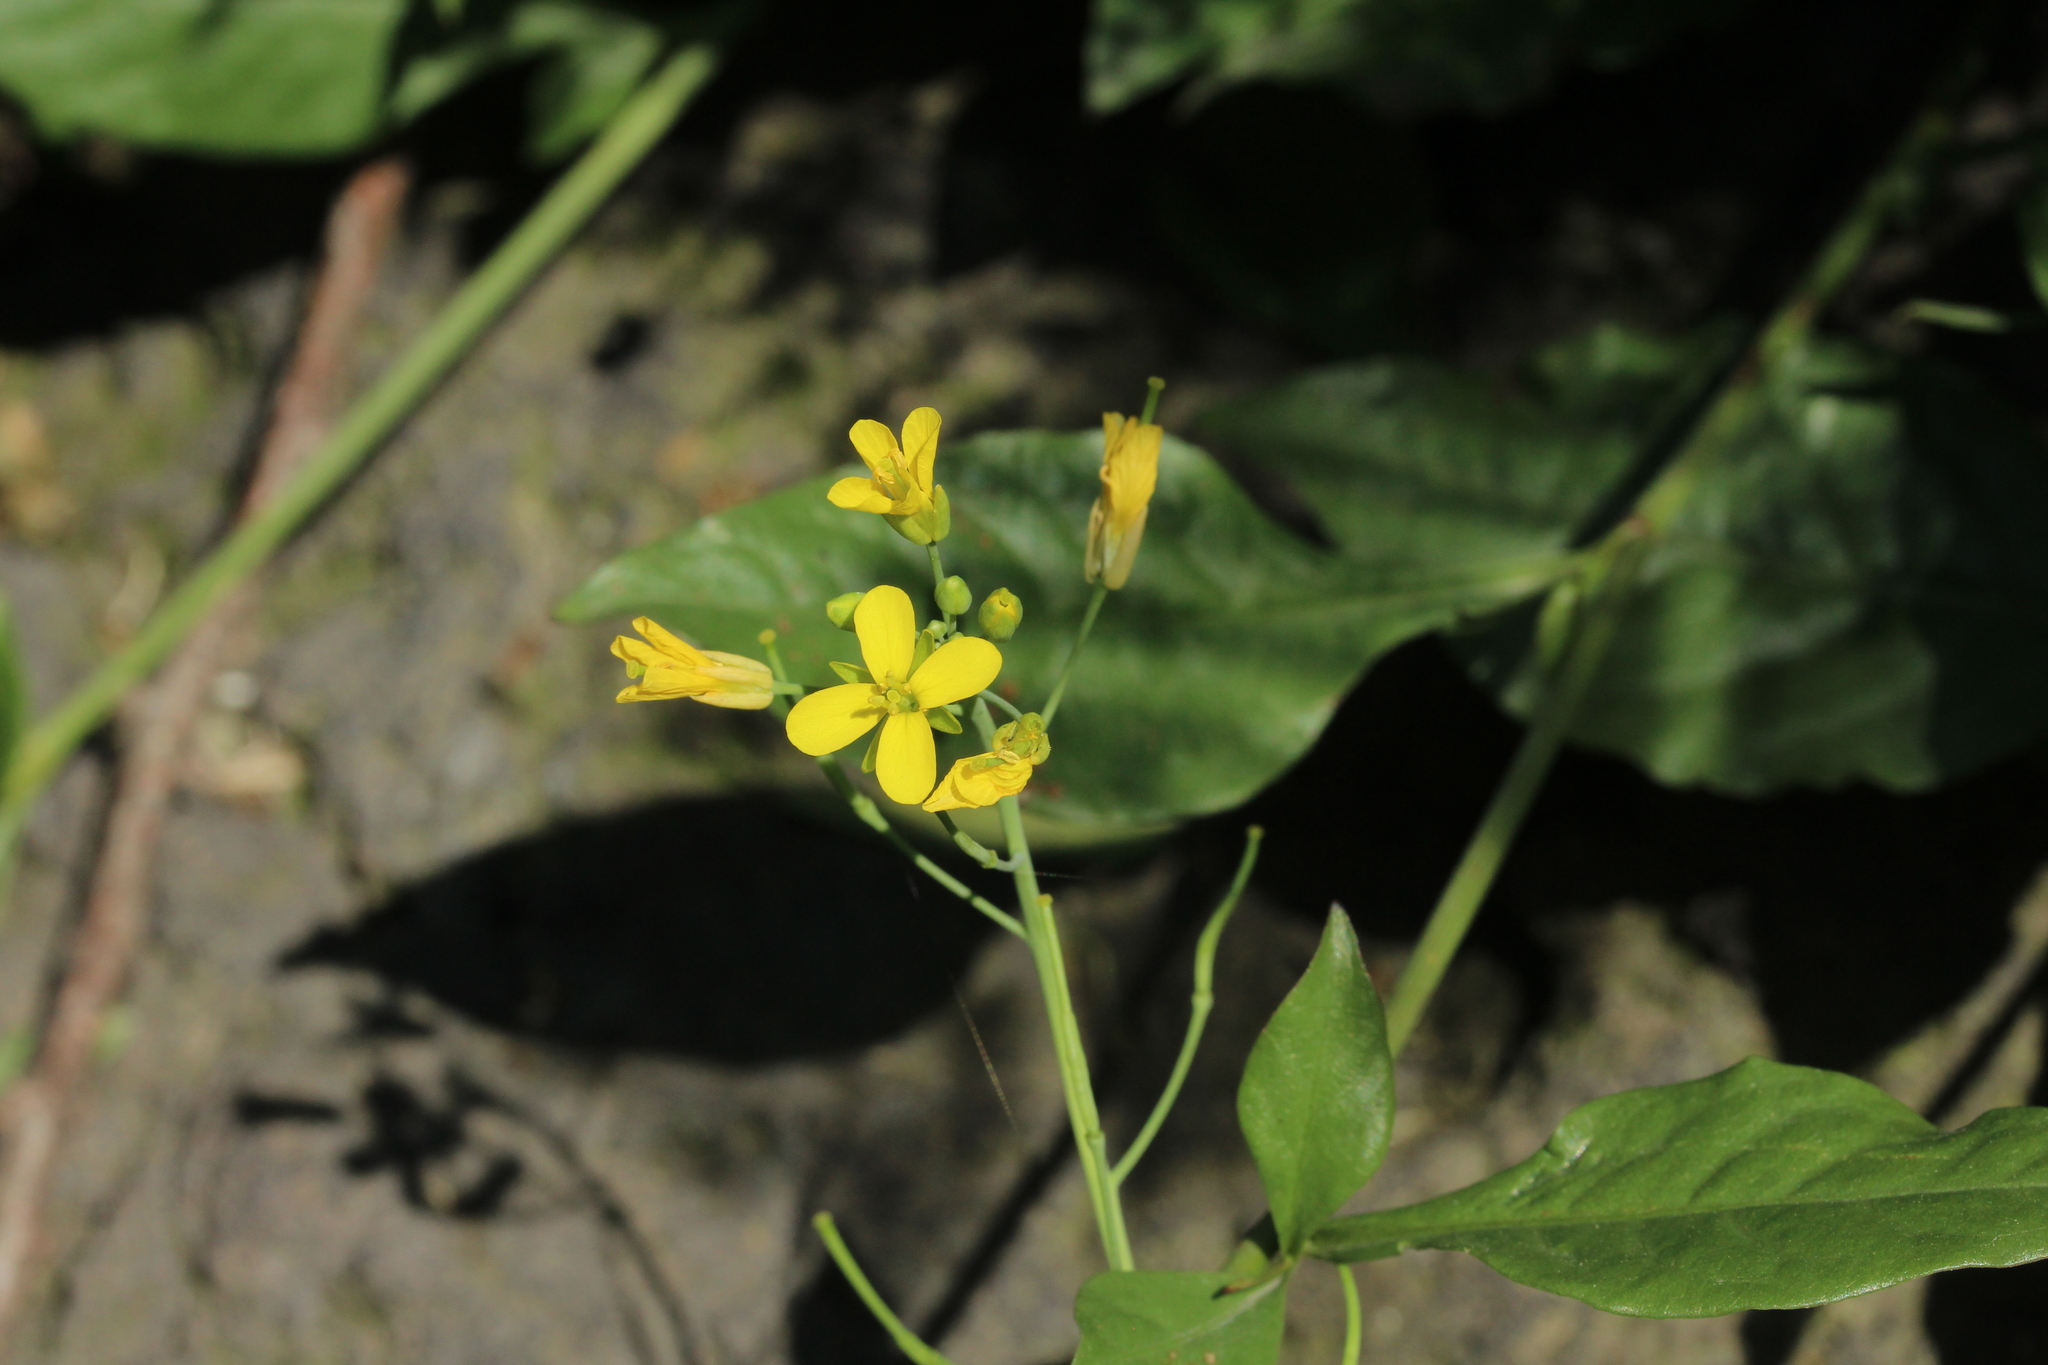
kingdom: Plantae
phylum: Tracheophyta
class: Magnoliopsida
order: Brassicales
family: Brassicaceae
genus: Brassica
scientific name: Brassica
